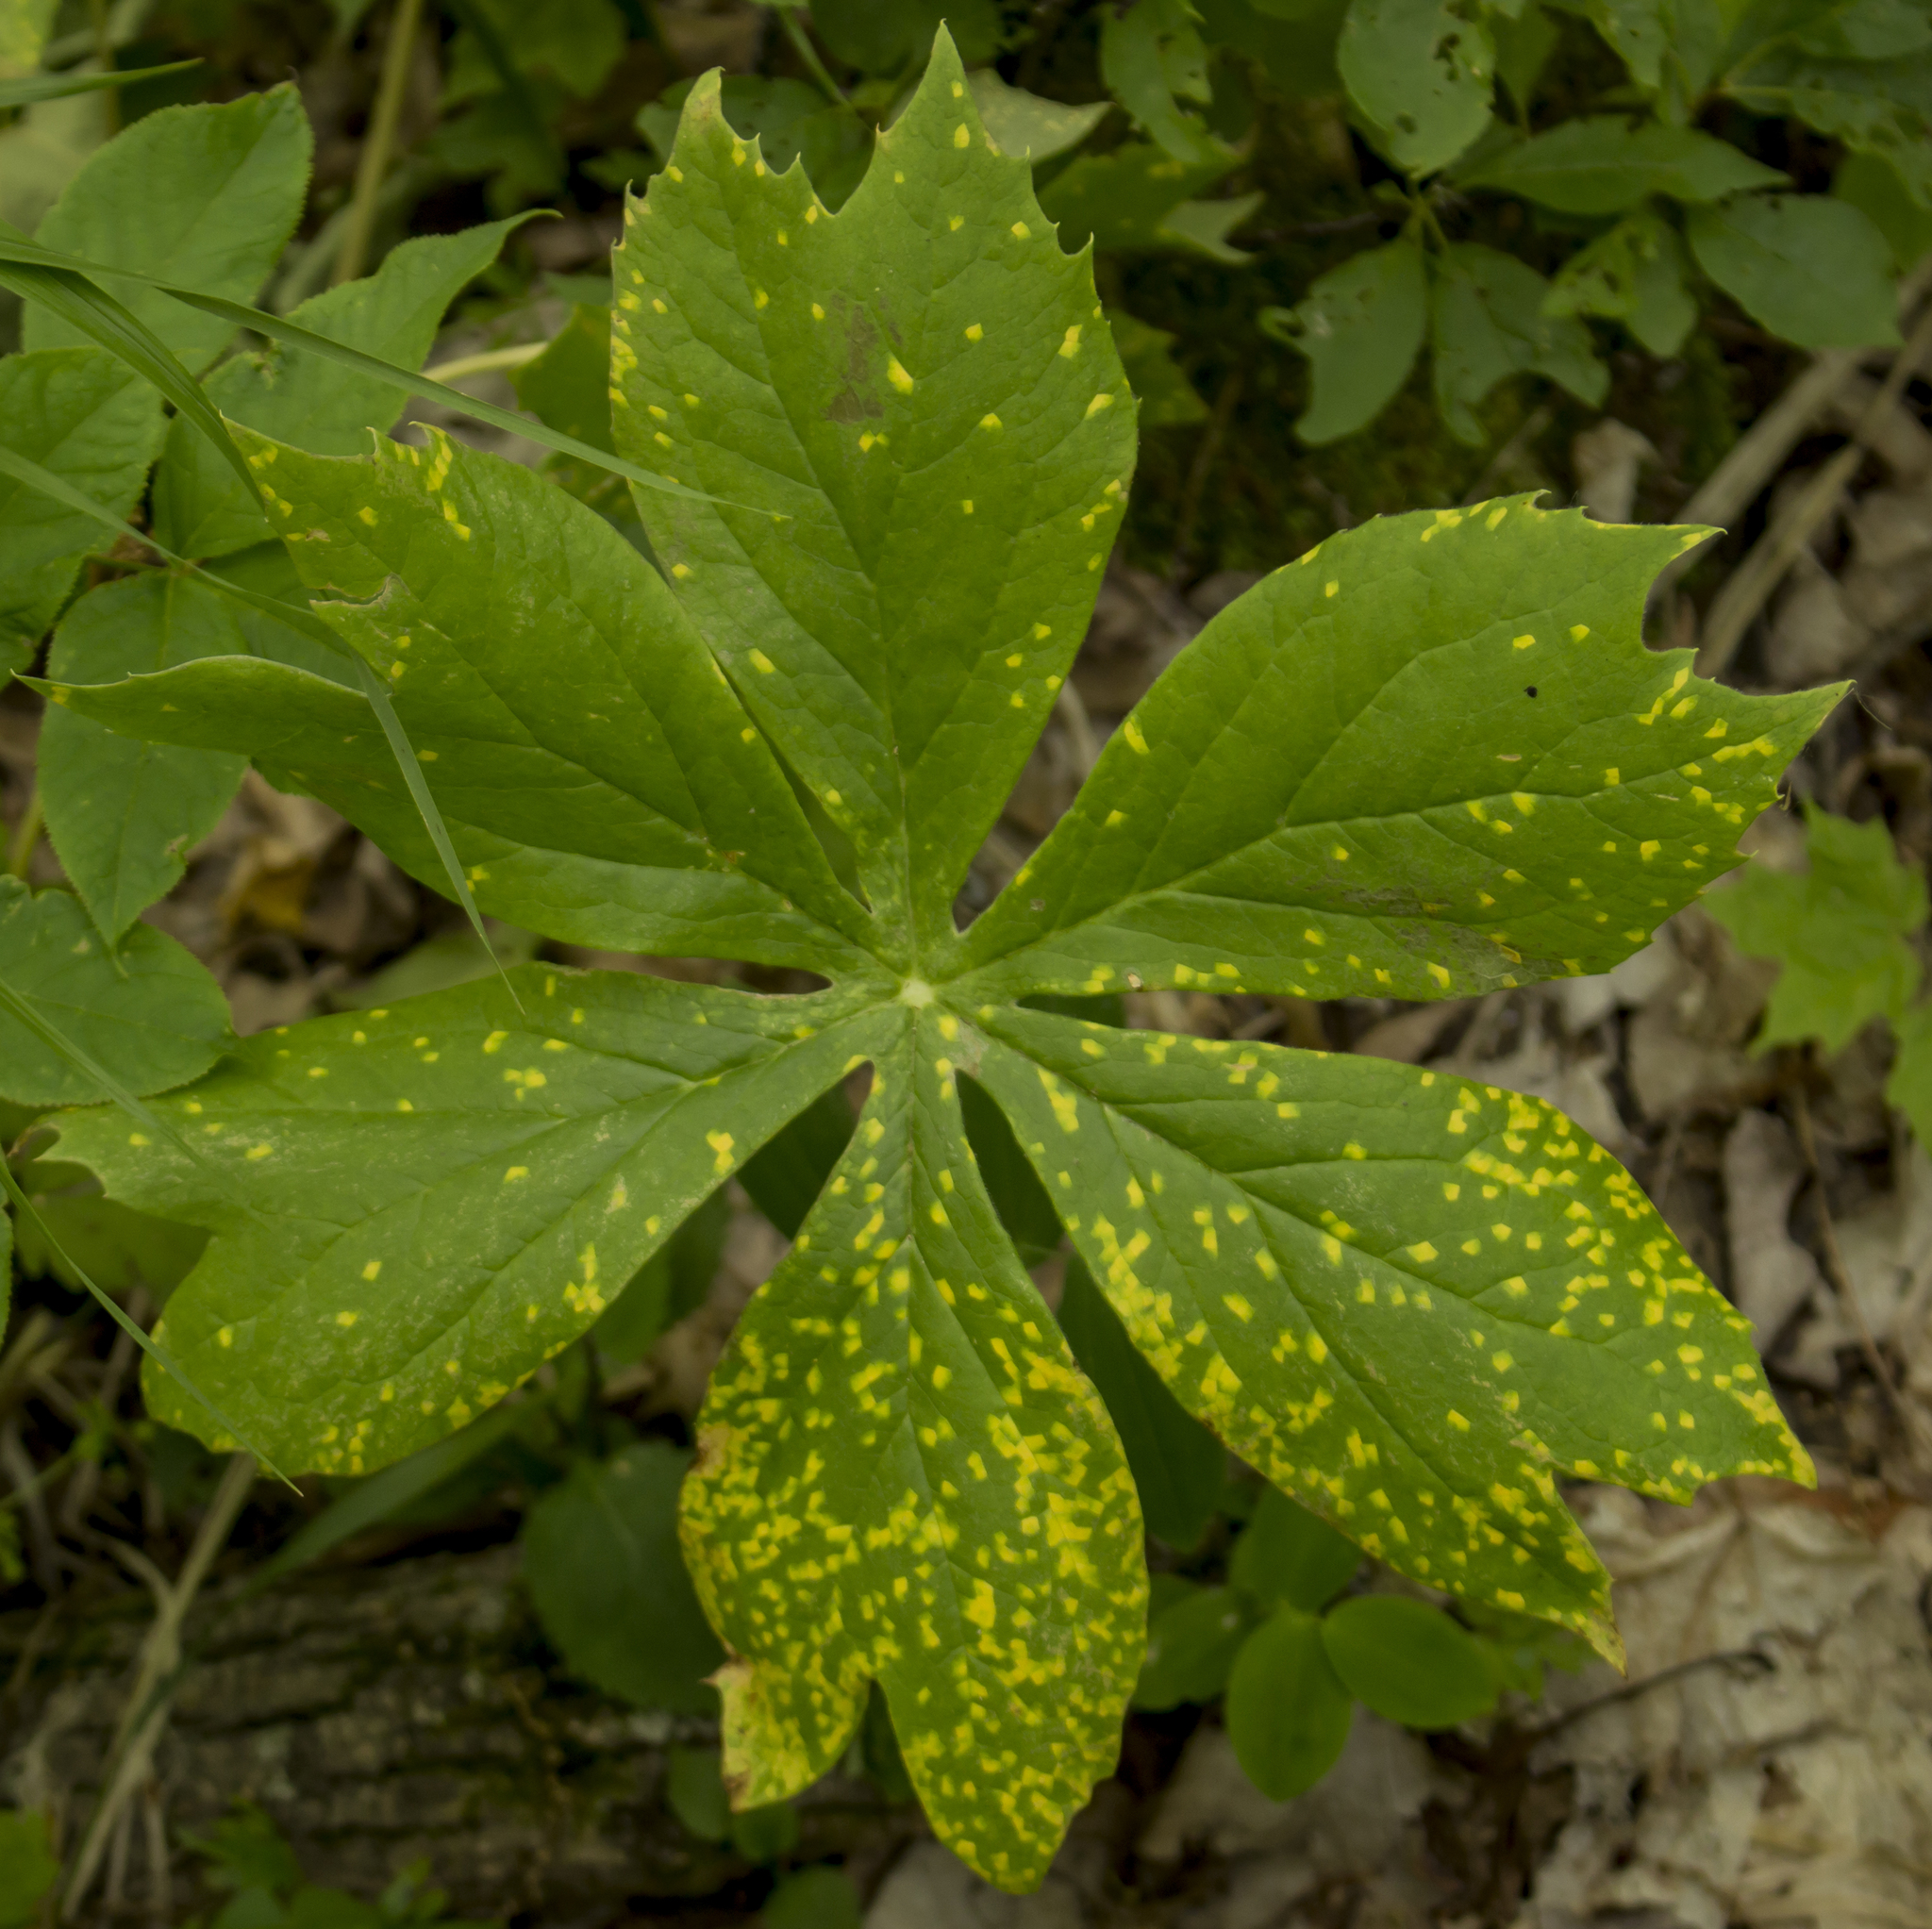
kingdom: Fungi
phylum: Basidiomycota
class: Pucciniomycetes
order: Pucciniales
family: Pucciniaceae
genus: Puccinia
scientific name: Puccinia podophylli
